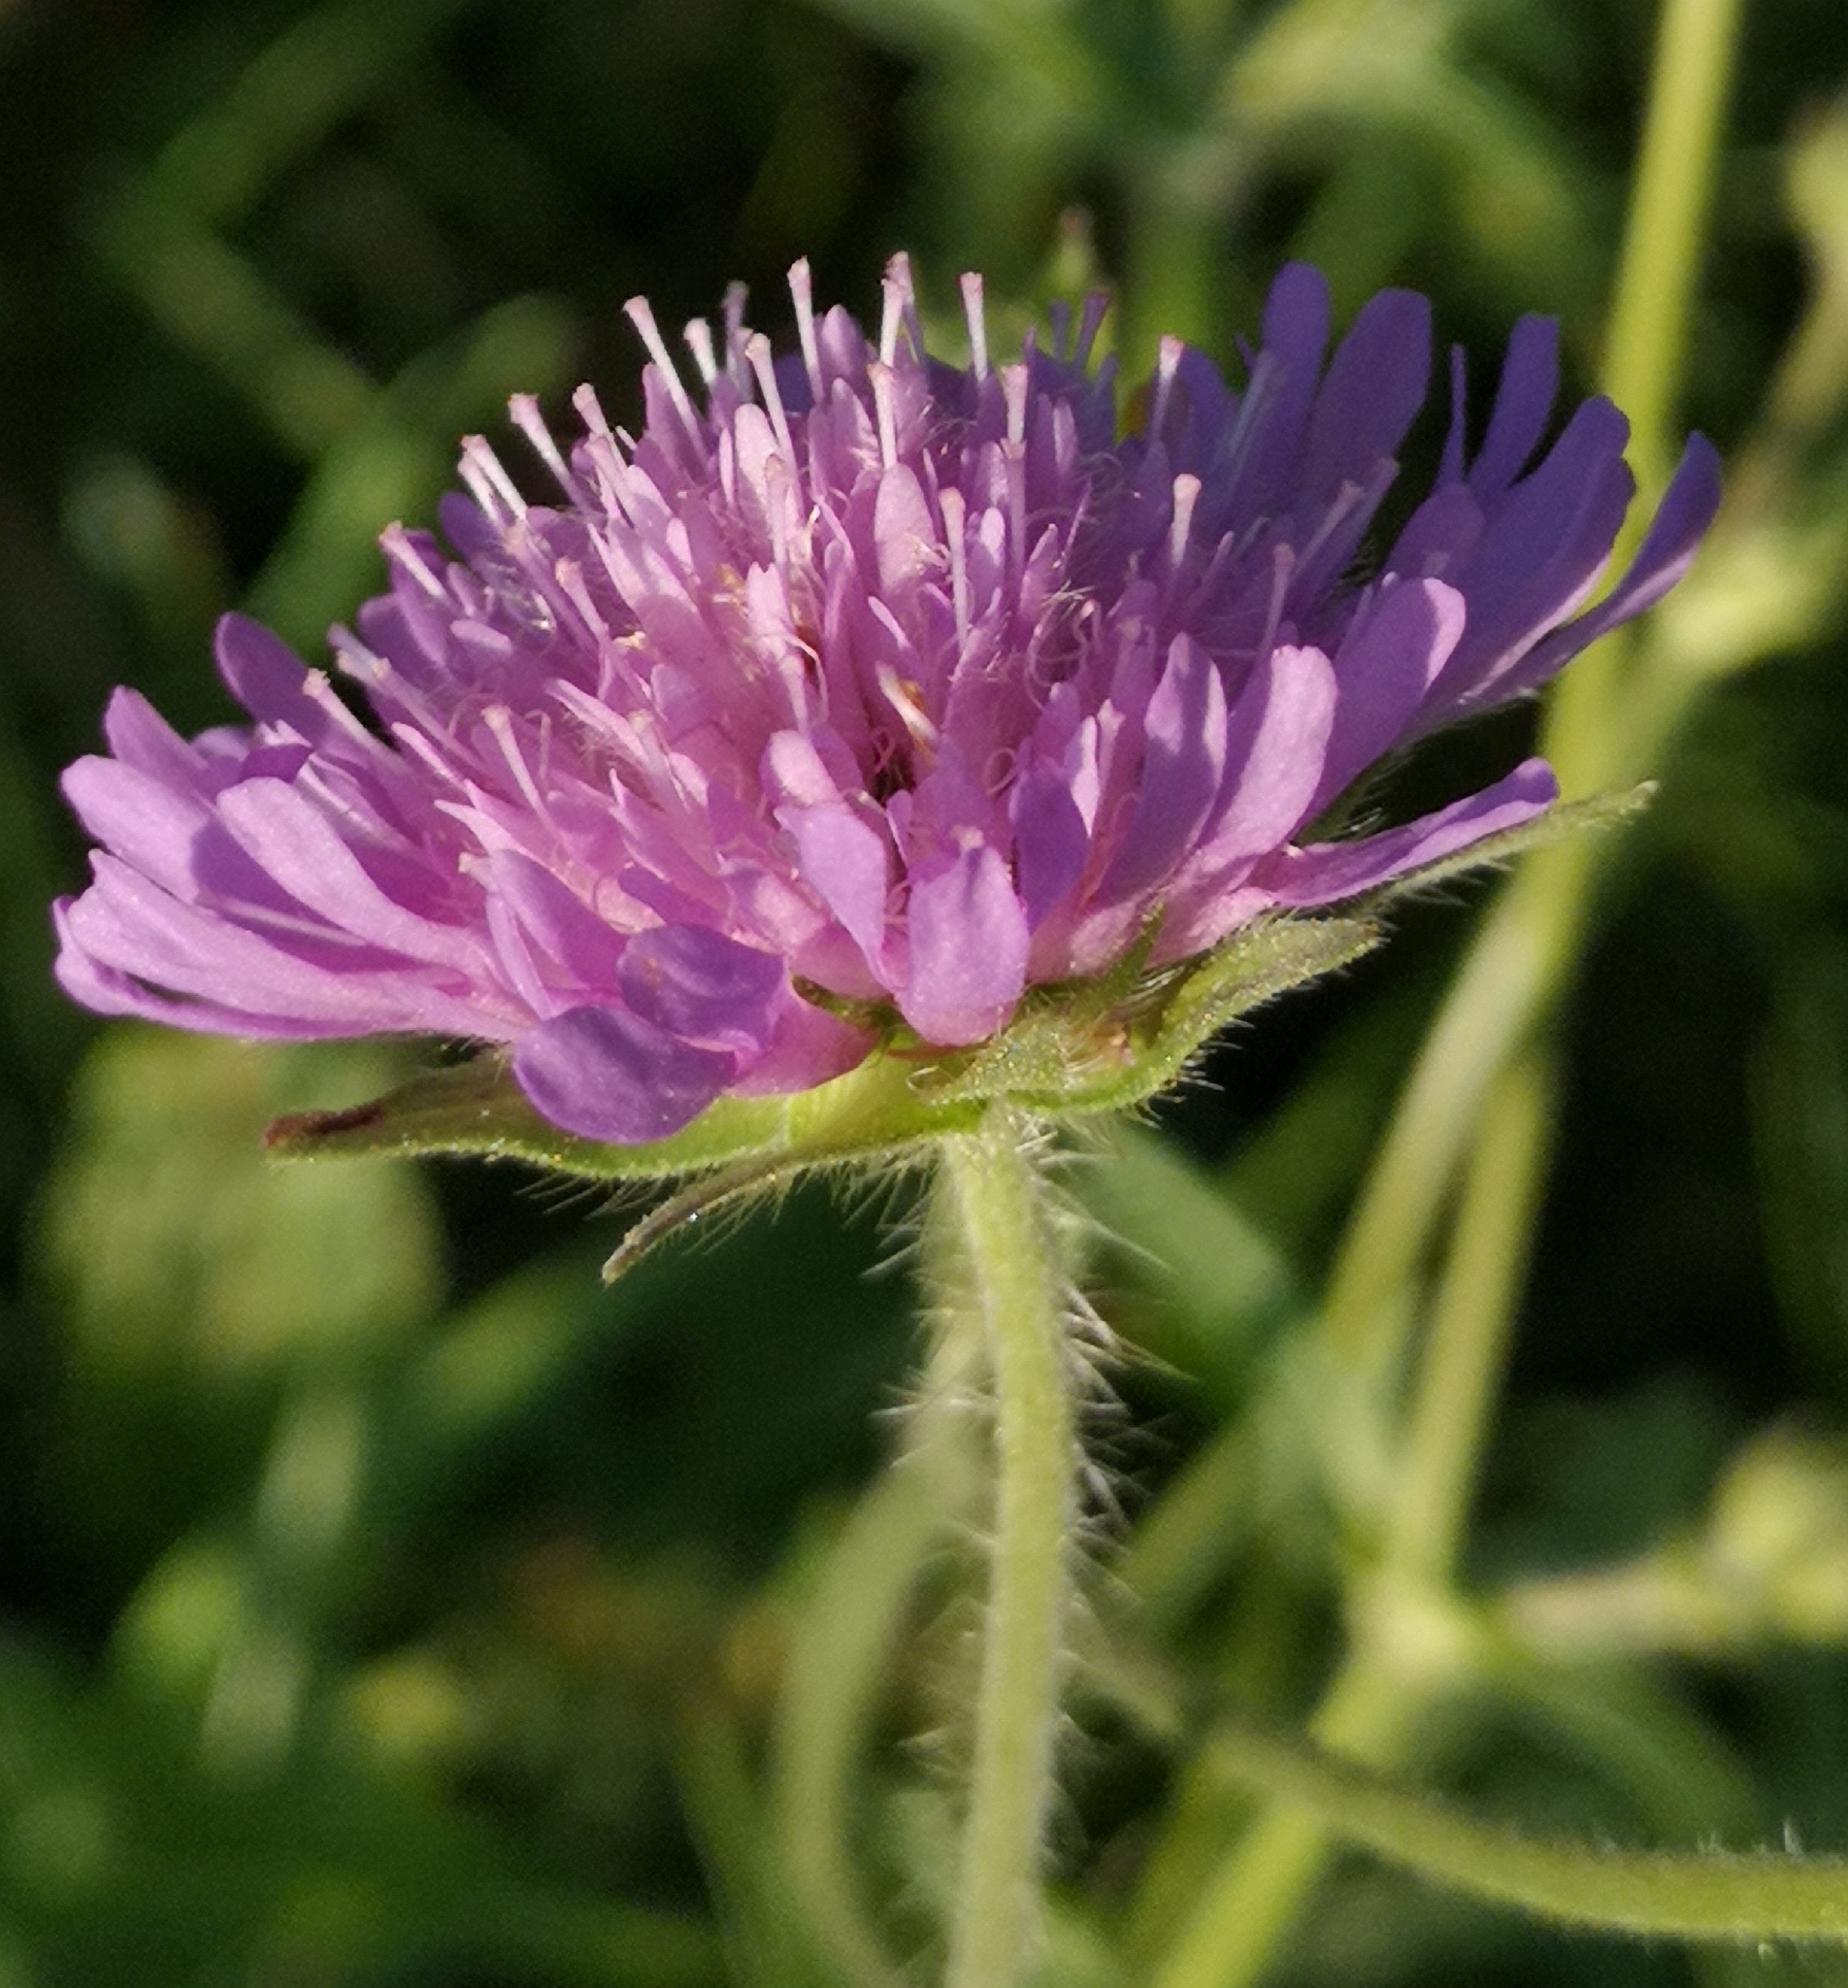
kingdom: Plantae
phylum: Tracheophyta
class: Magnoliopsida
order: Dipsacales
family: Caprifoliaceae
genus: Knautia
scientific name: Knautia arvensis
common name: Field scabiosa
